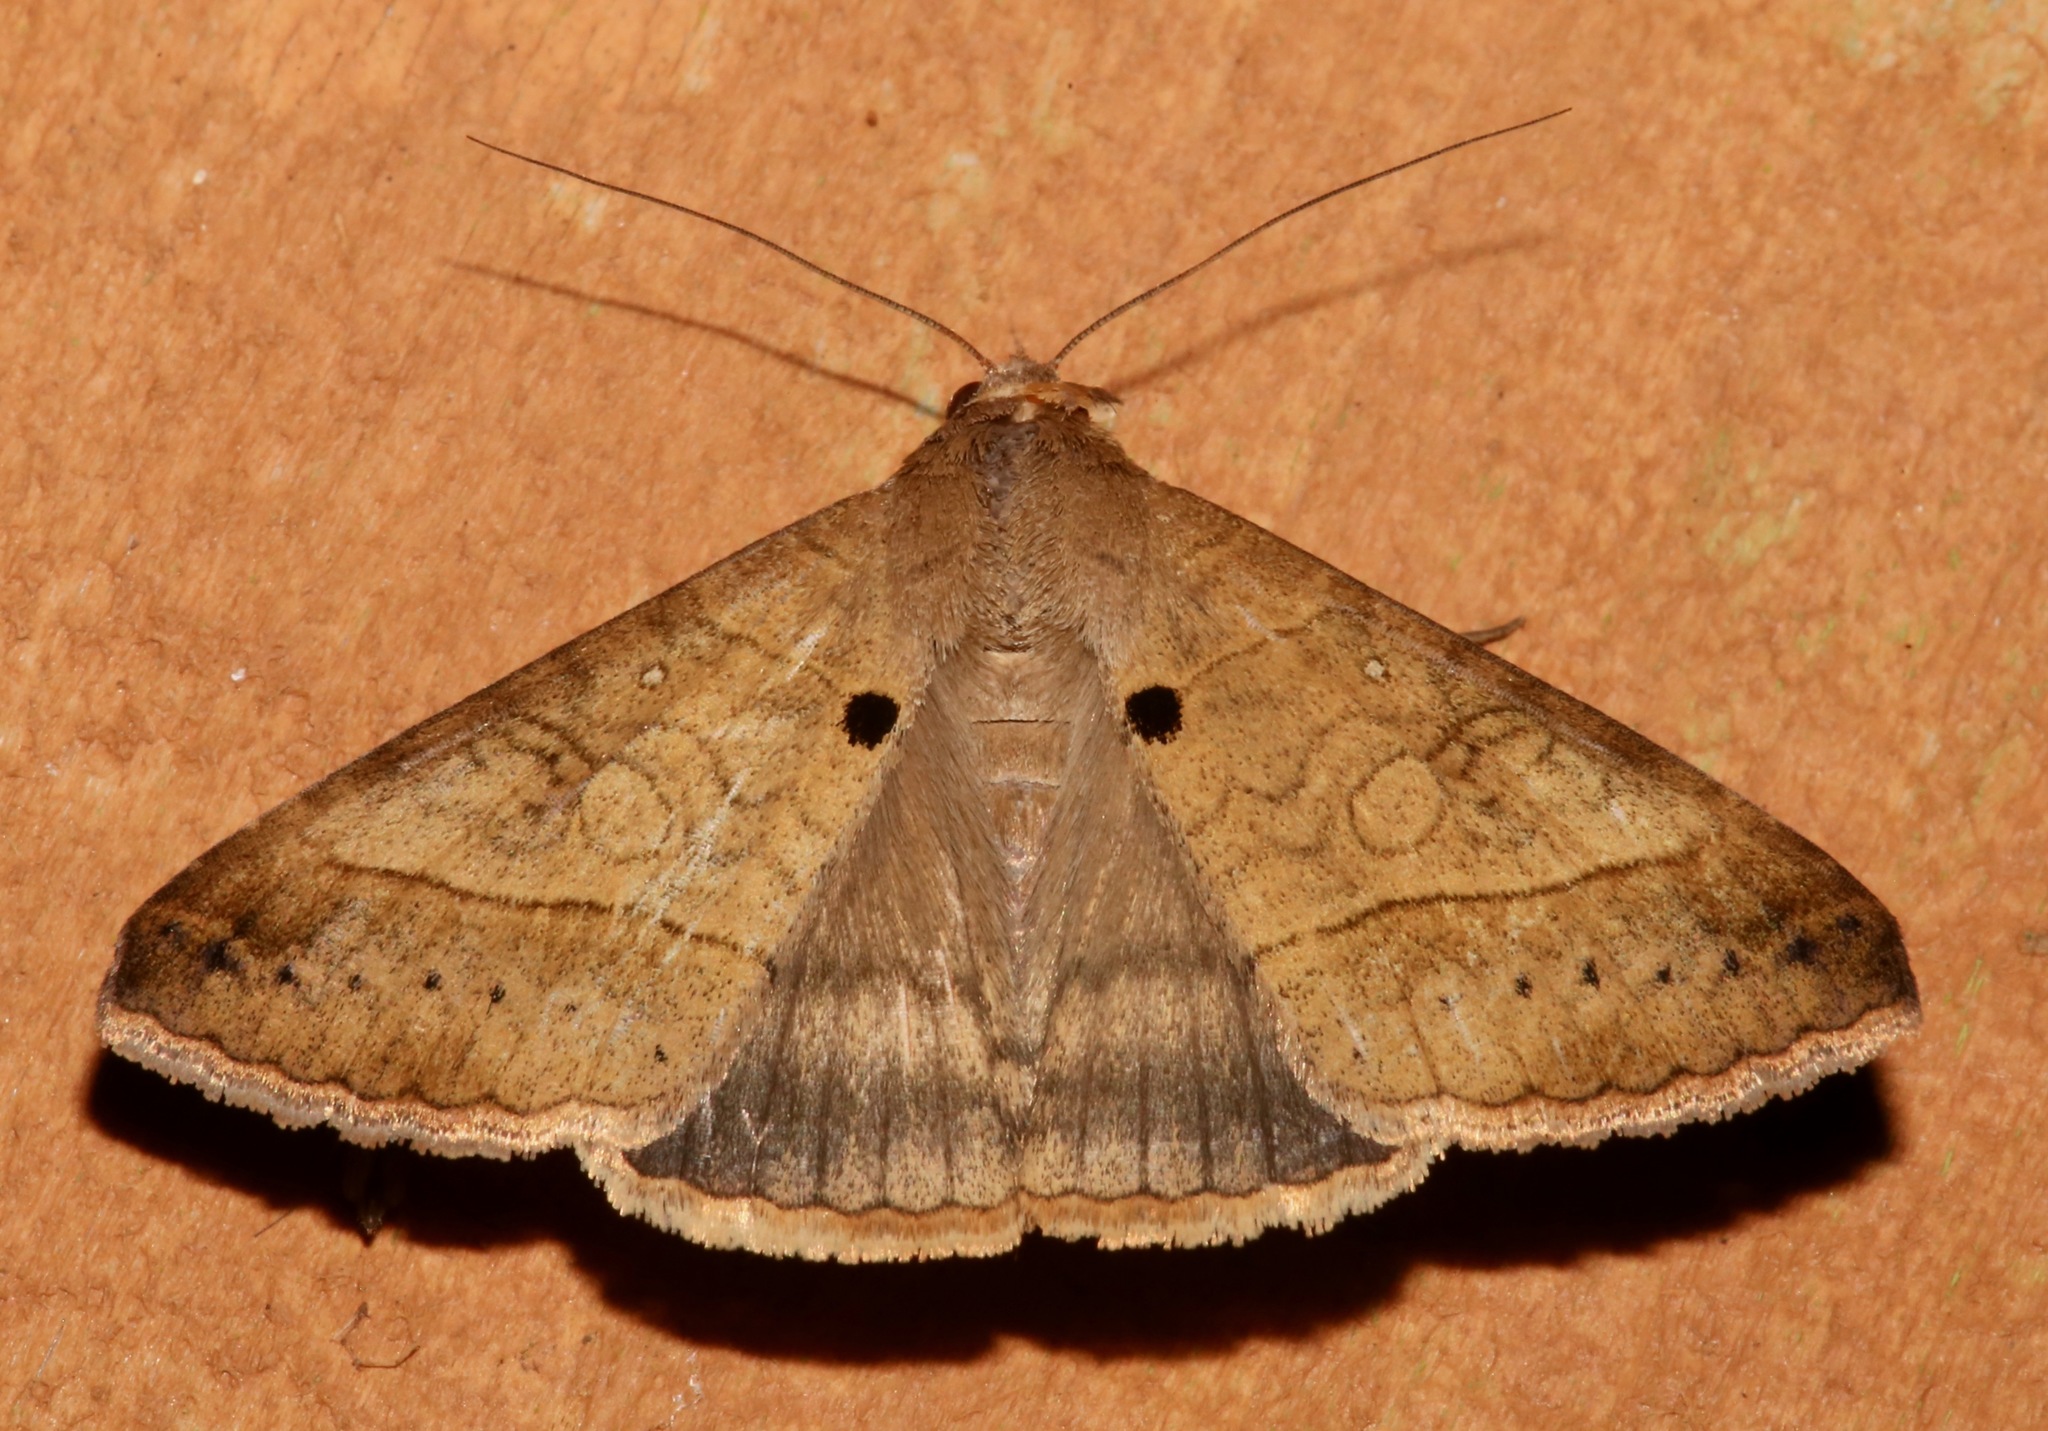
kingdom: Animalia
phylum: Arthropoda
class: Insecta
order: Lepidoptera
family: Erebidae
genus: Mocis
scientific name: Mocis latipes
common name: Striped grass looper
